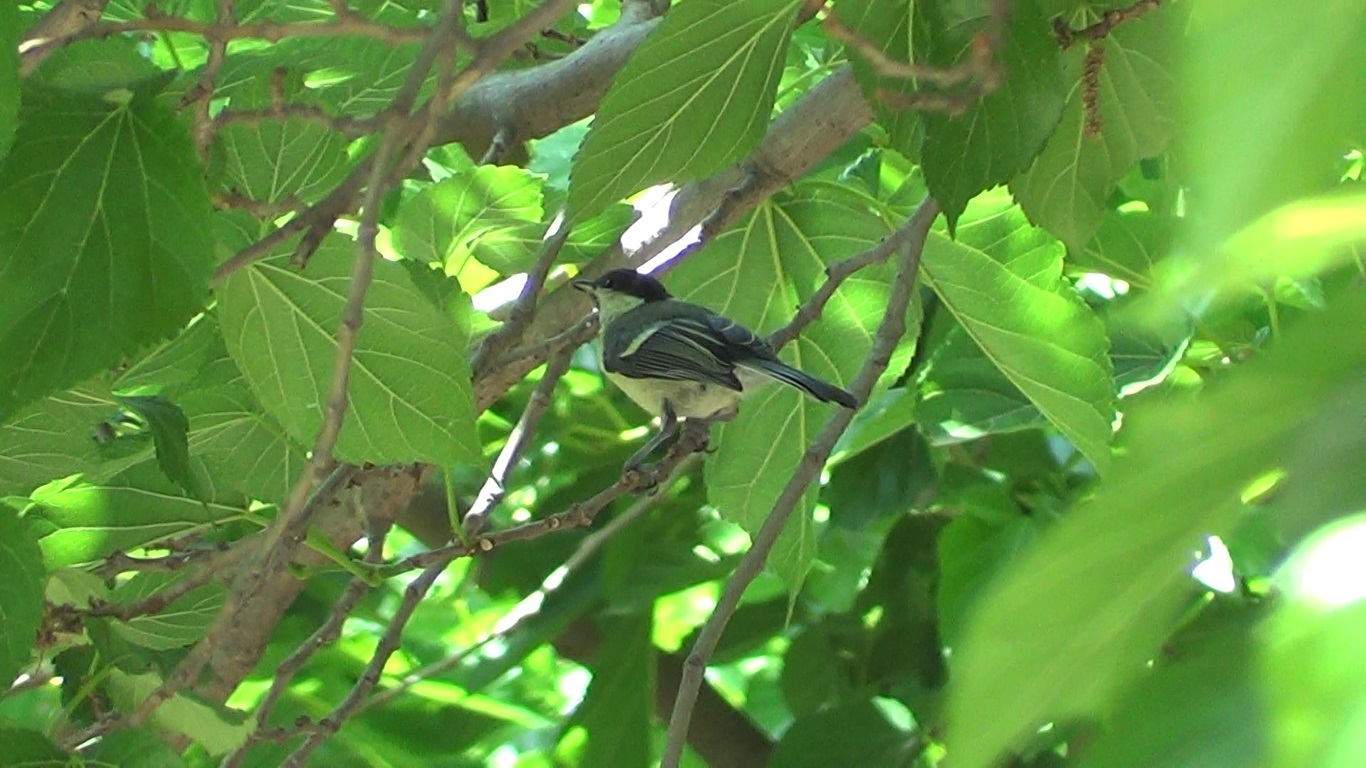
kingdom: Animalia
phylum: Chordata
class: Aves
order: Passeriformes
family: Paridae
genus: Periparus
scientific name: Periparus ater
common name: Coal tit
